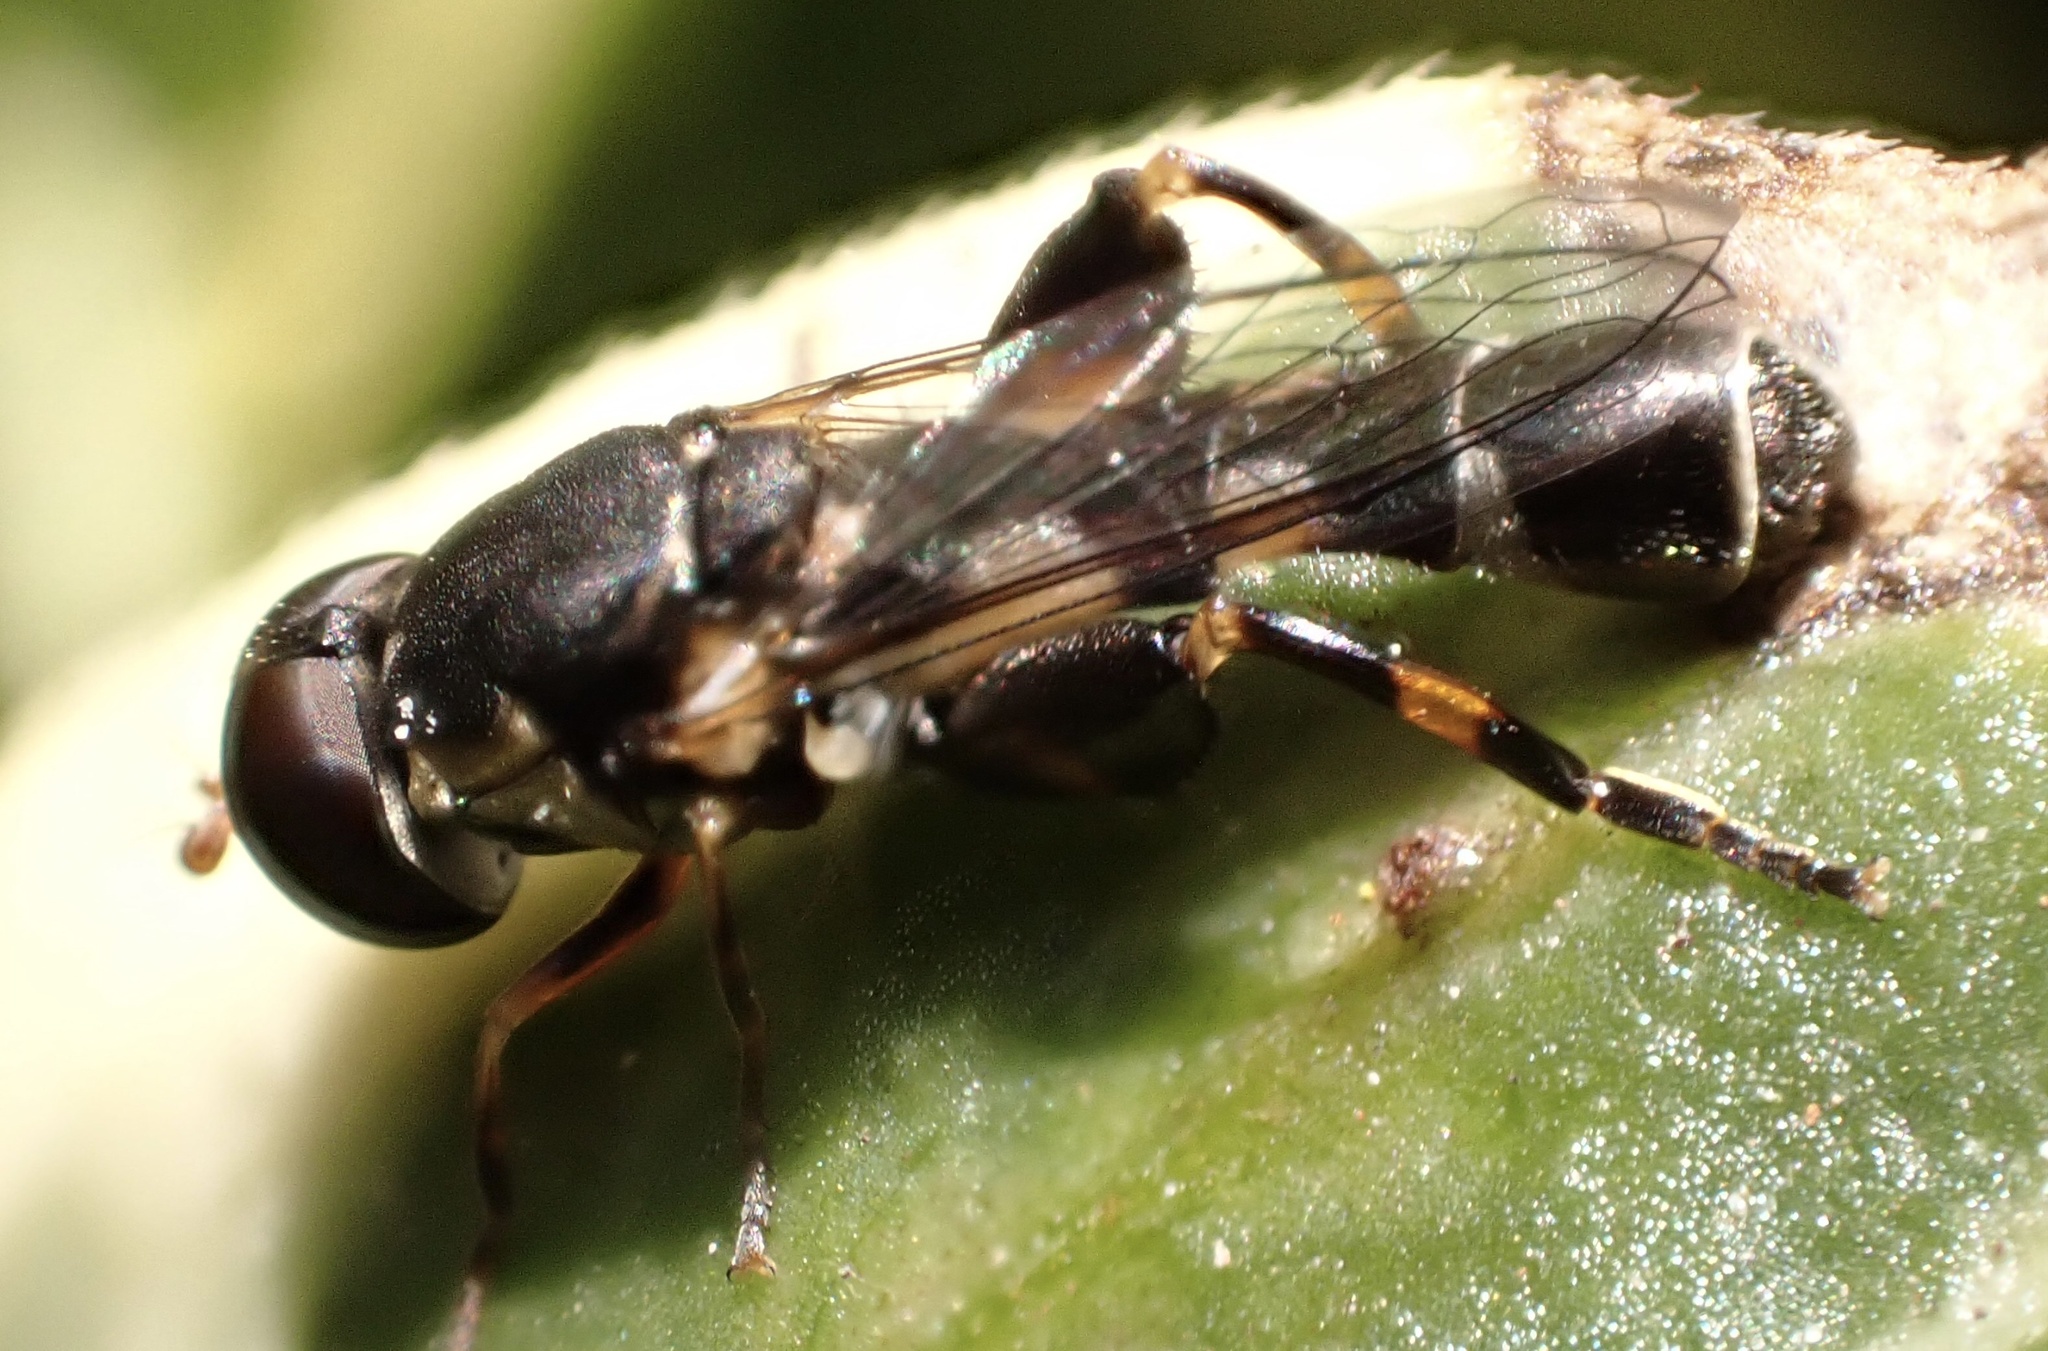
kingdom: Animalia
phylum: Arthropoda
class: Insecta
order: Diptera
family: Syrphidae
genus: Syritta
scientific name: Syritta pipiens
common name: Hover fly
